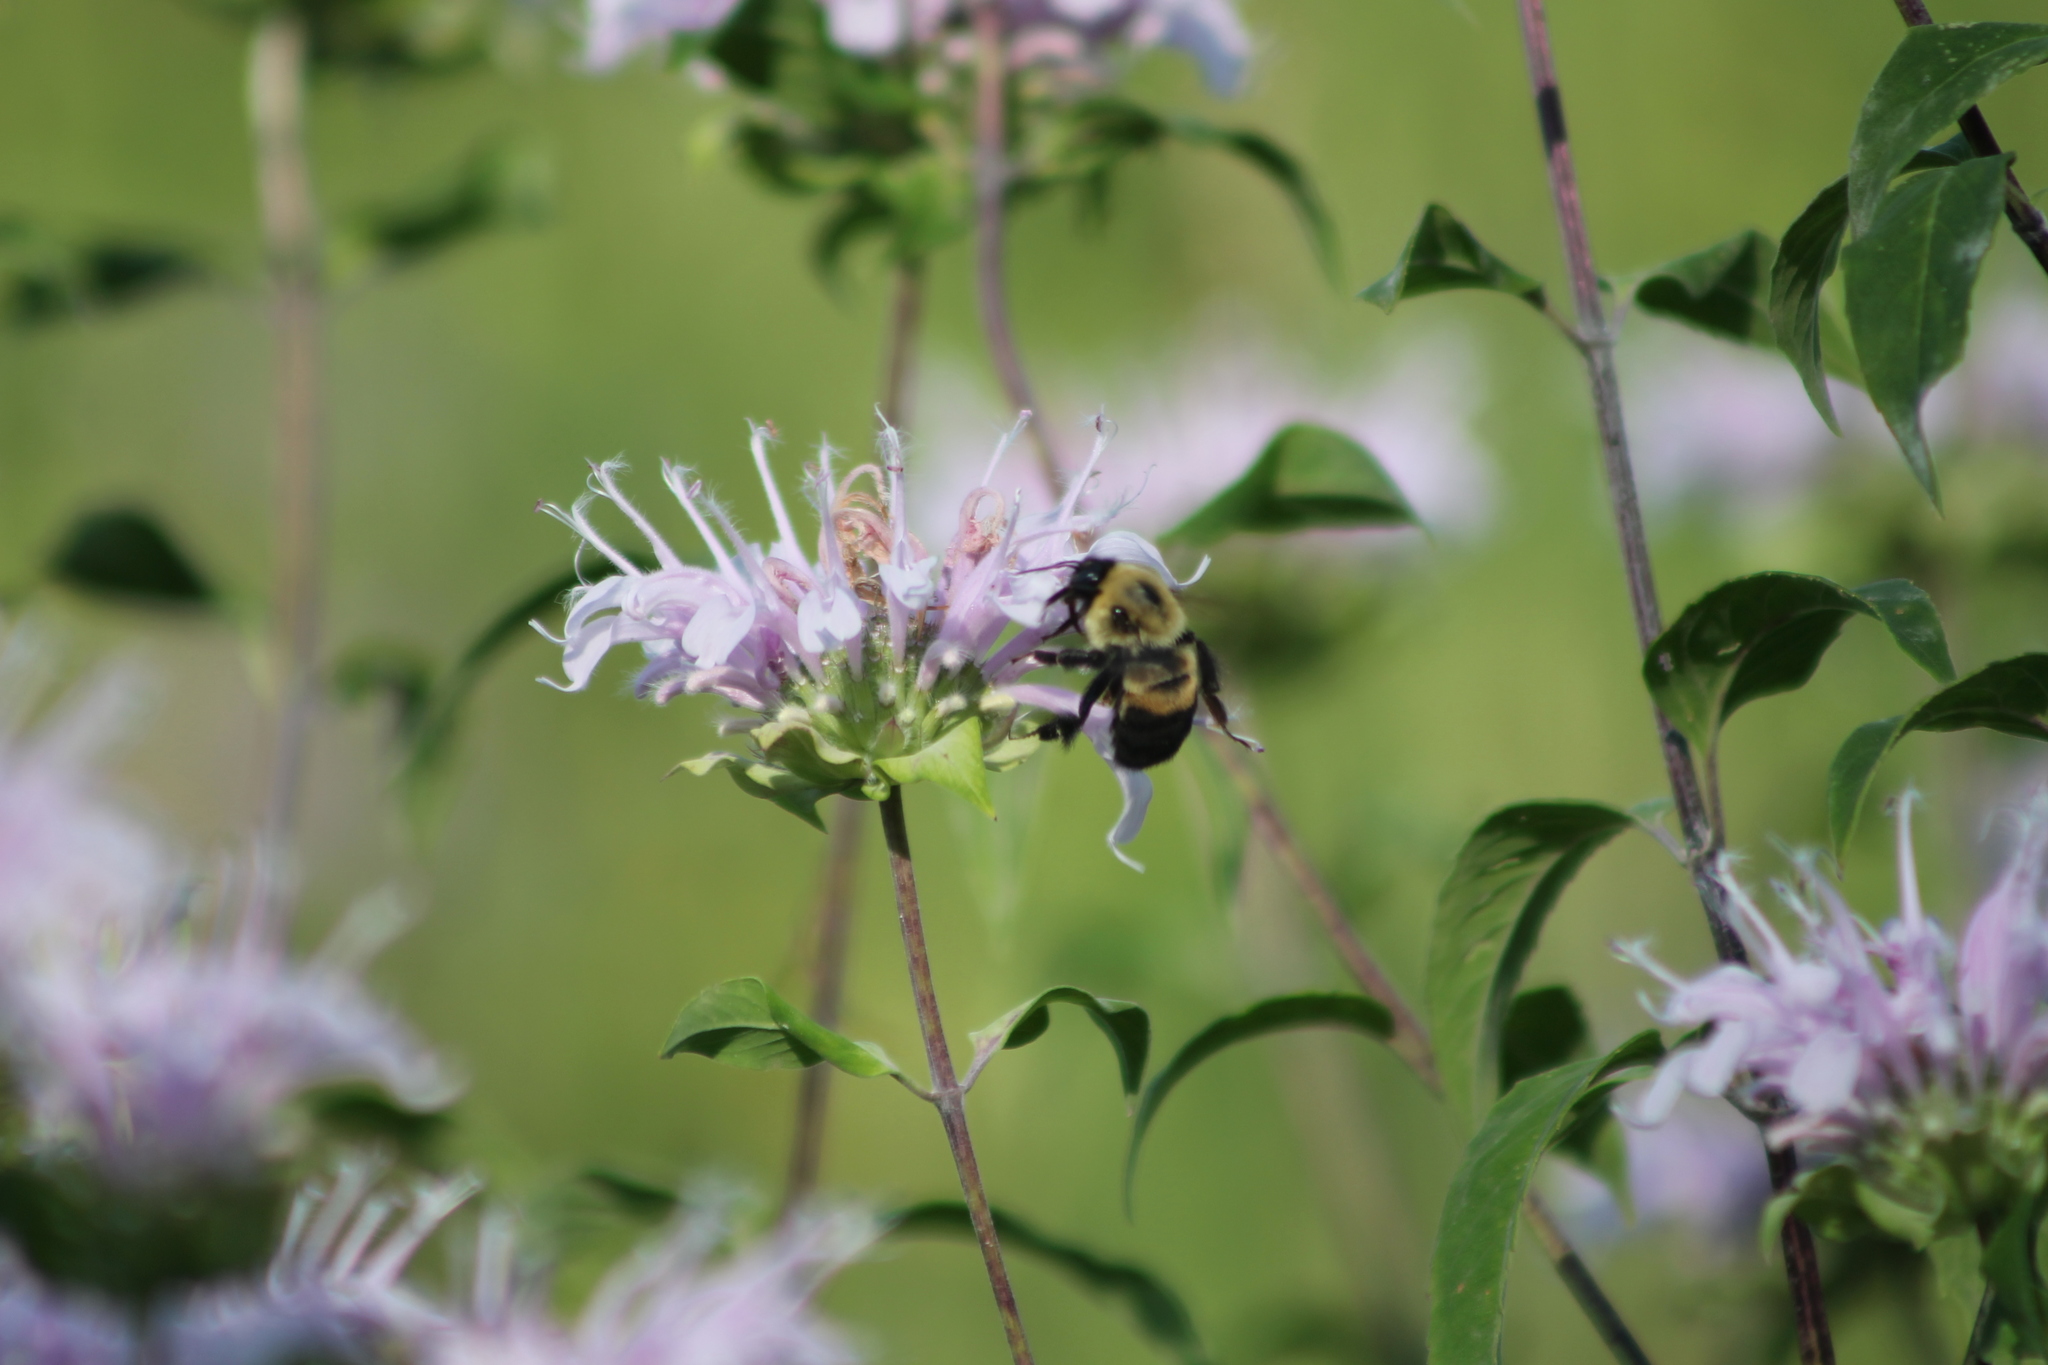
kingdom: Animalia
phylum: Arthropoda
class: Insecta
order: Hymenoptera
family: Apidae
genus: Bombus
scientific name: Bombus griseocollis
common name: Brown-belted bumble bee
